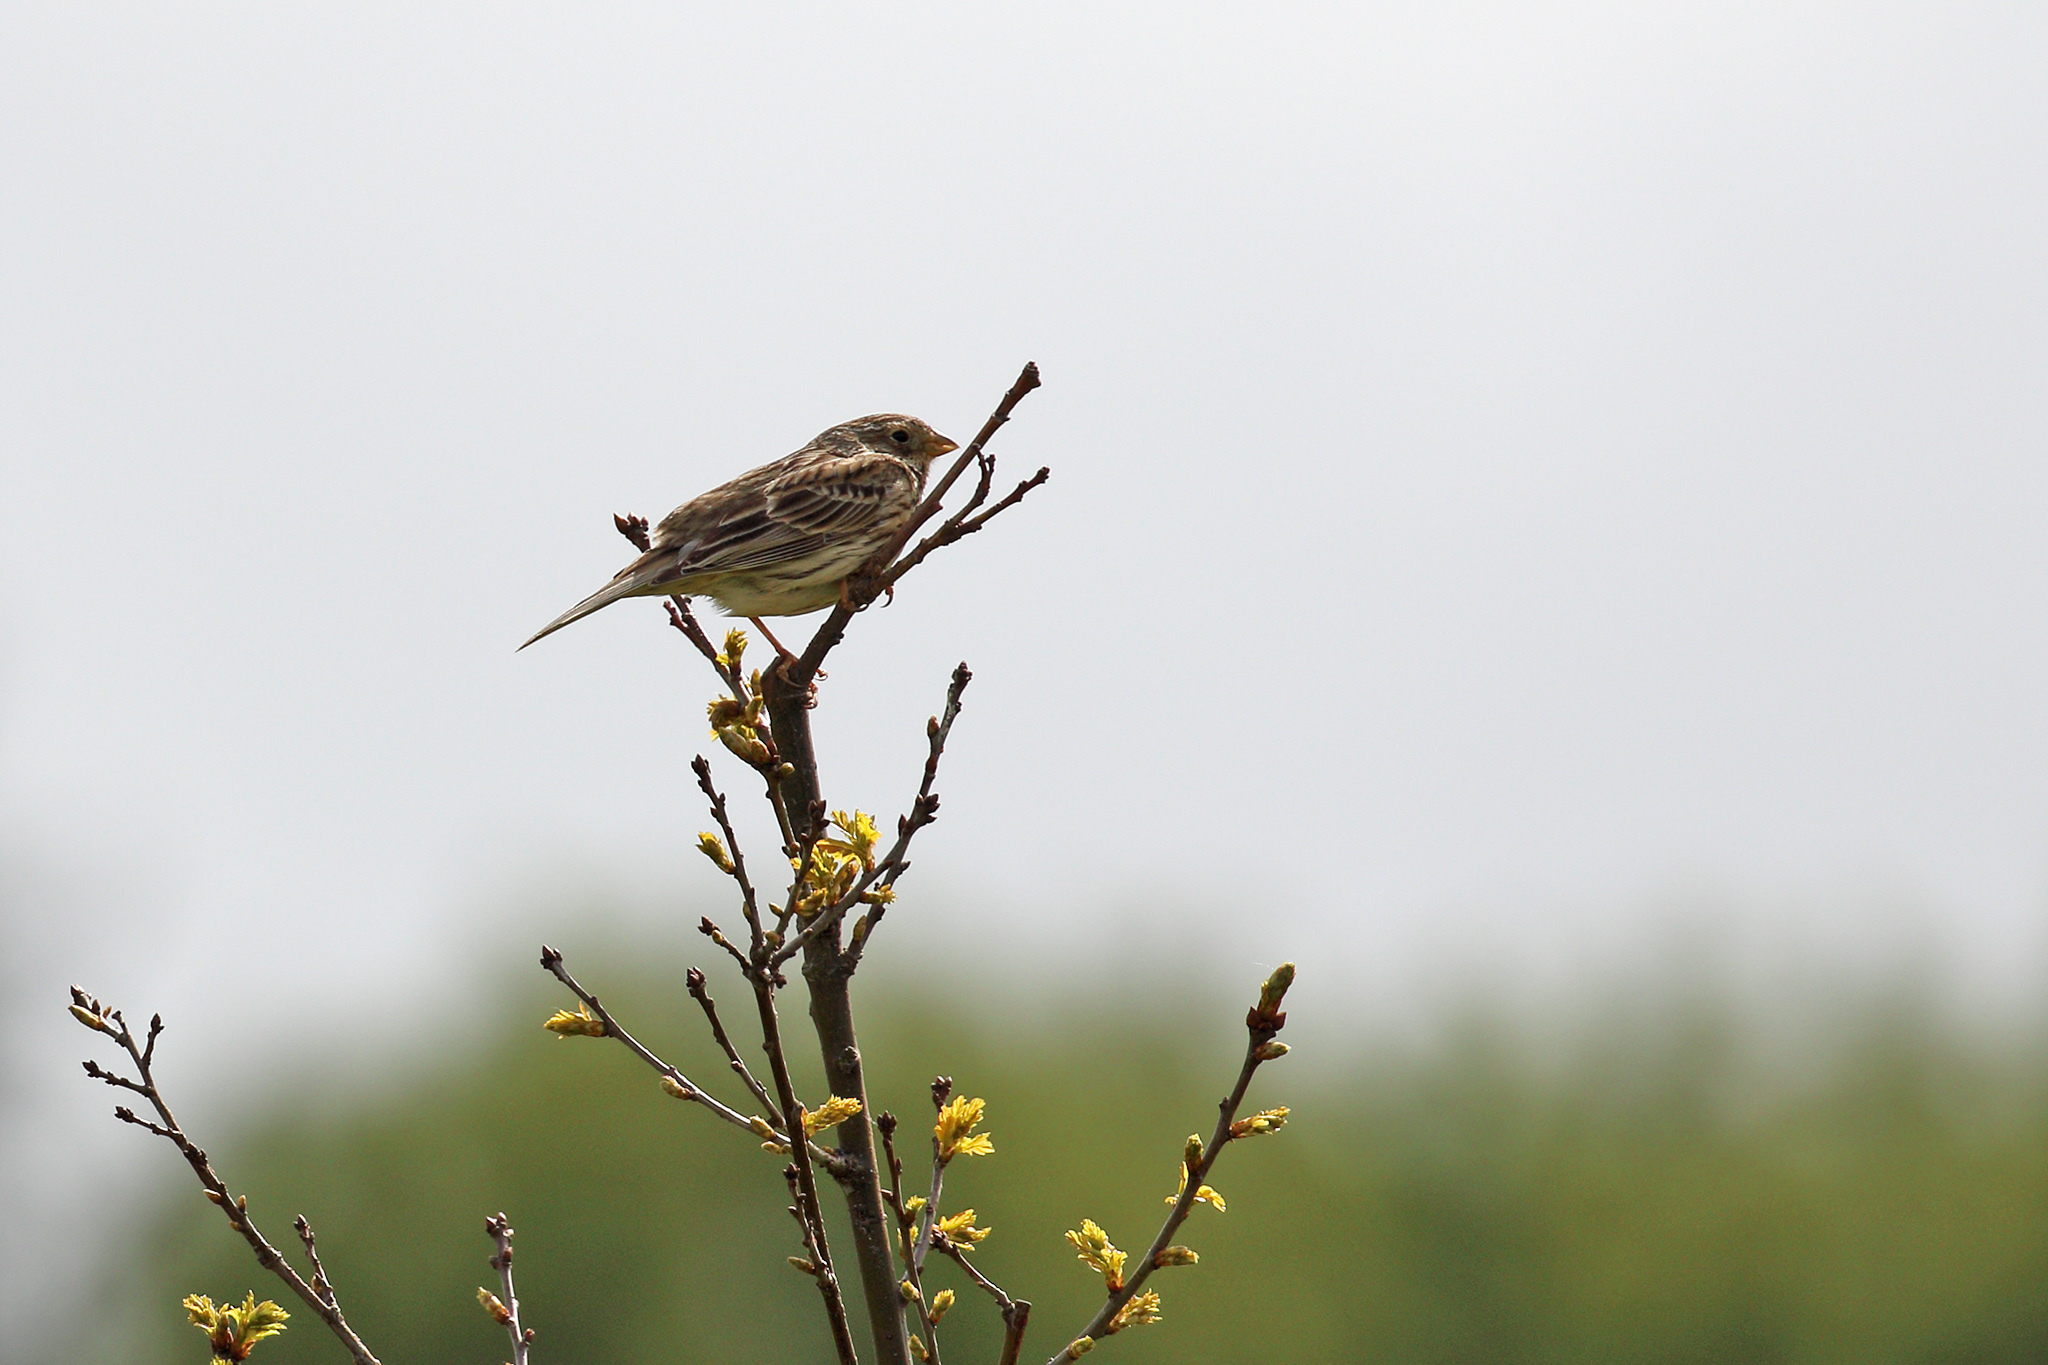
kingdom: Animalia
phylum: Chordata
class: Aves
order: Passeriformes
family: Emberizidae
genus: Emberiza
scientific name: Emberiza calandra
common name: Corn bunting
